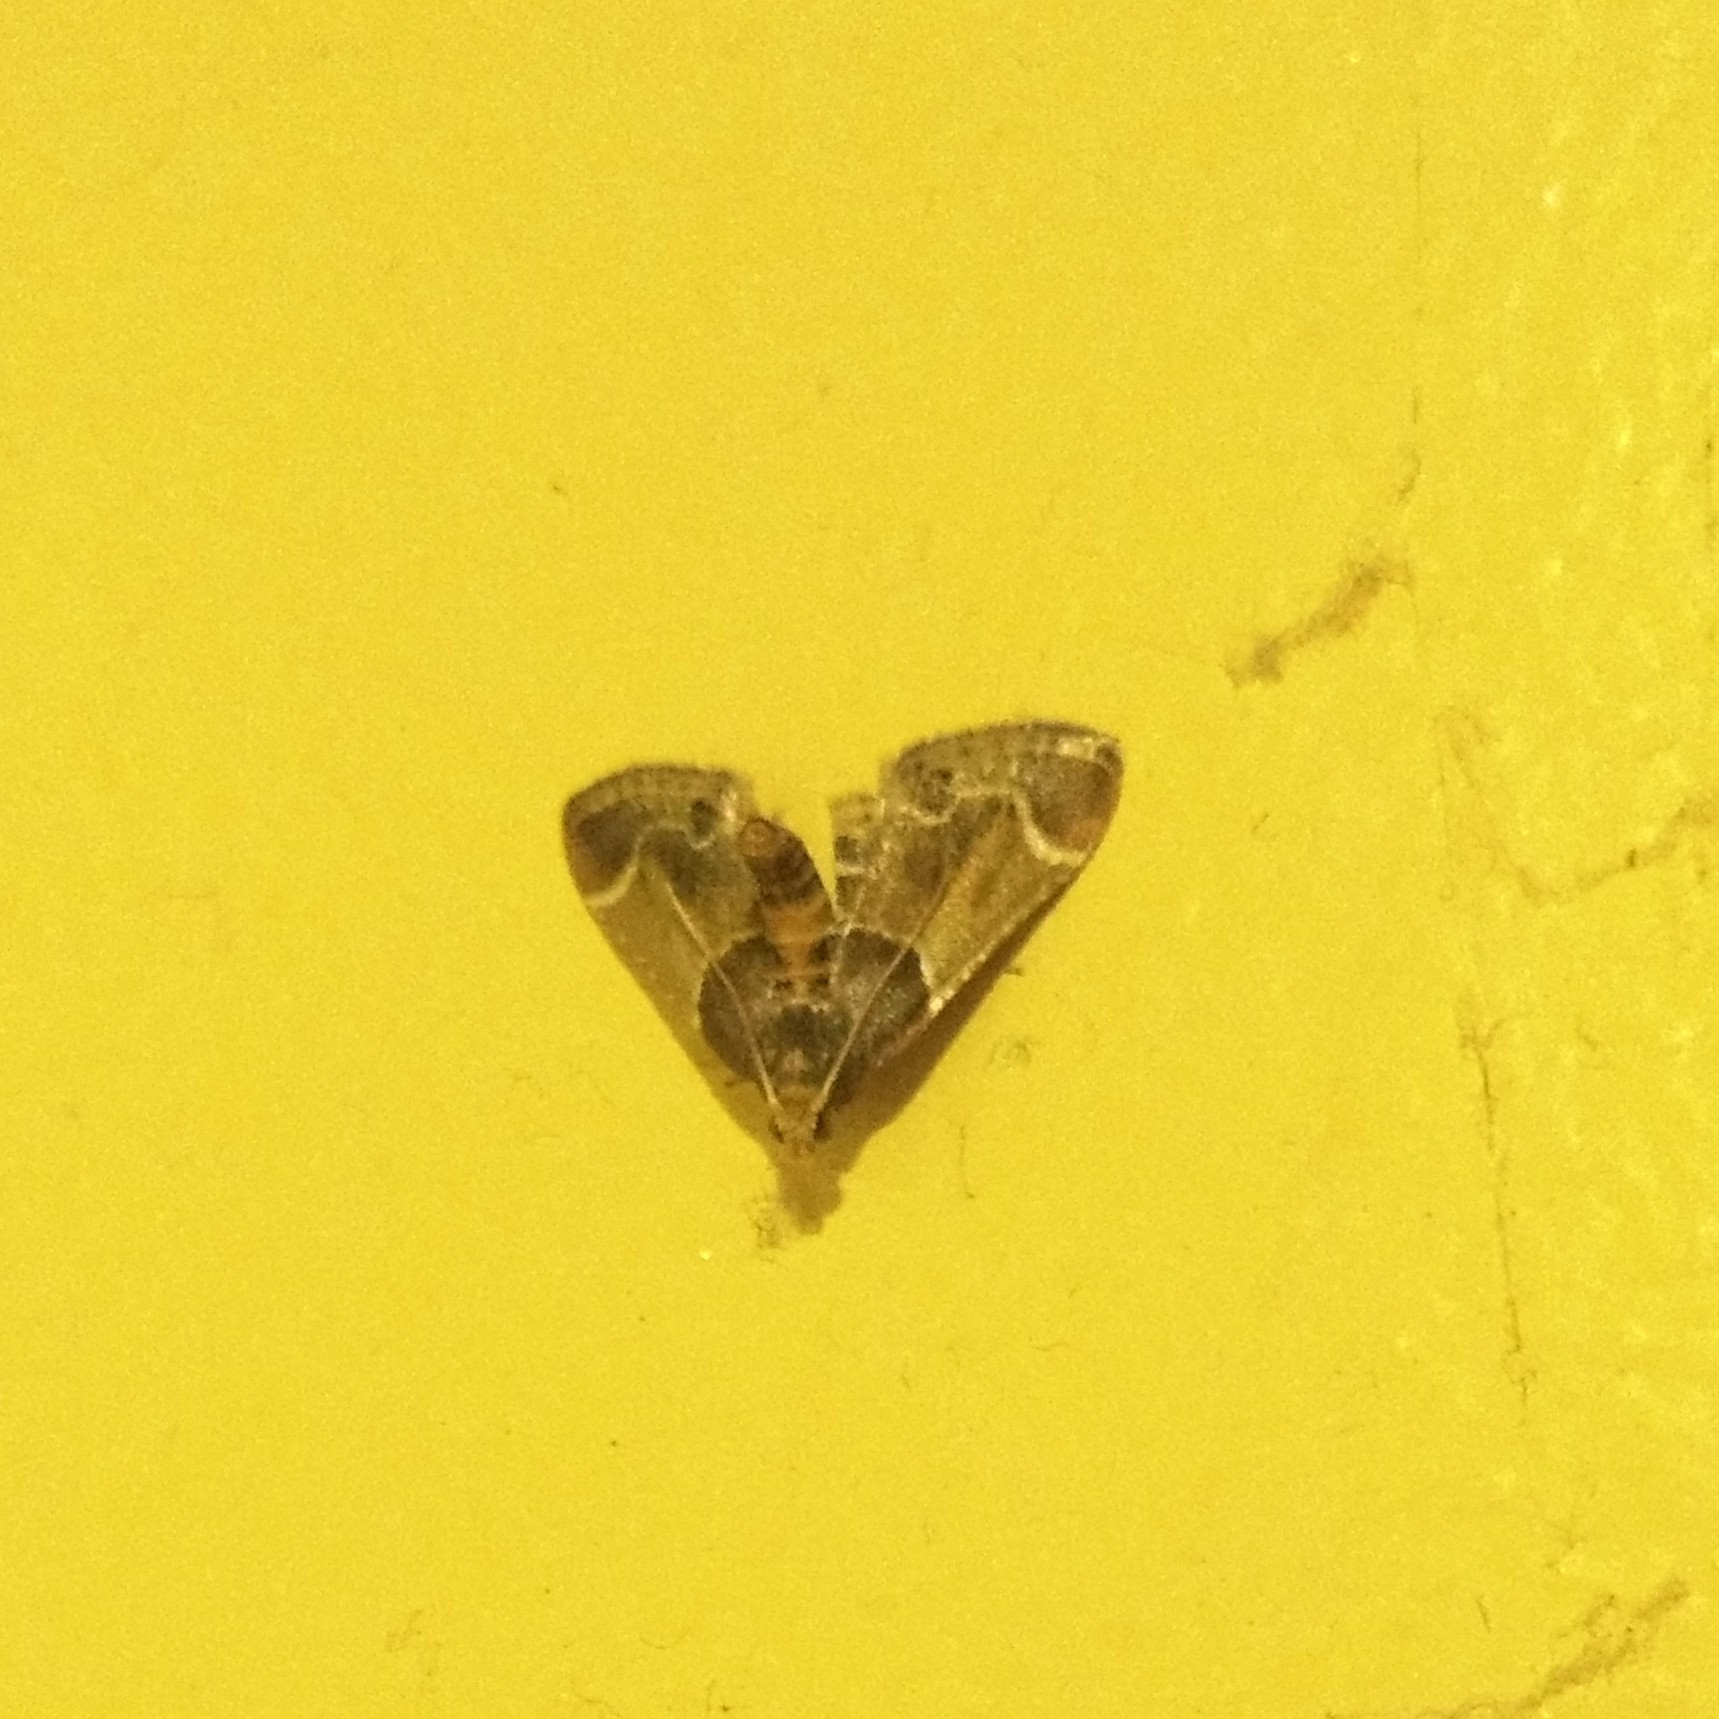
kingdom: Animalia
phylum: Arthropoda
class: Insecta
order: Lepidoptera
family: Pyralidae
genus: Pyralis
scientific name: Pyralis farinalis
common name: Meal moth
